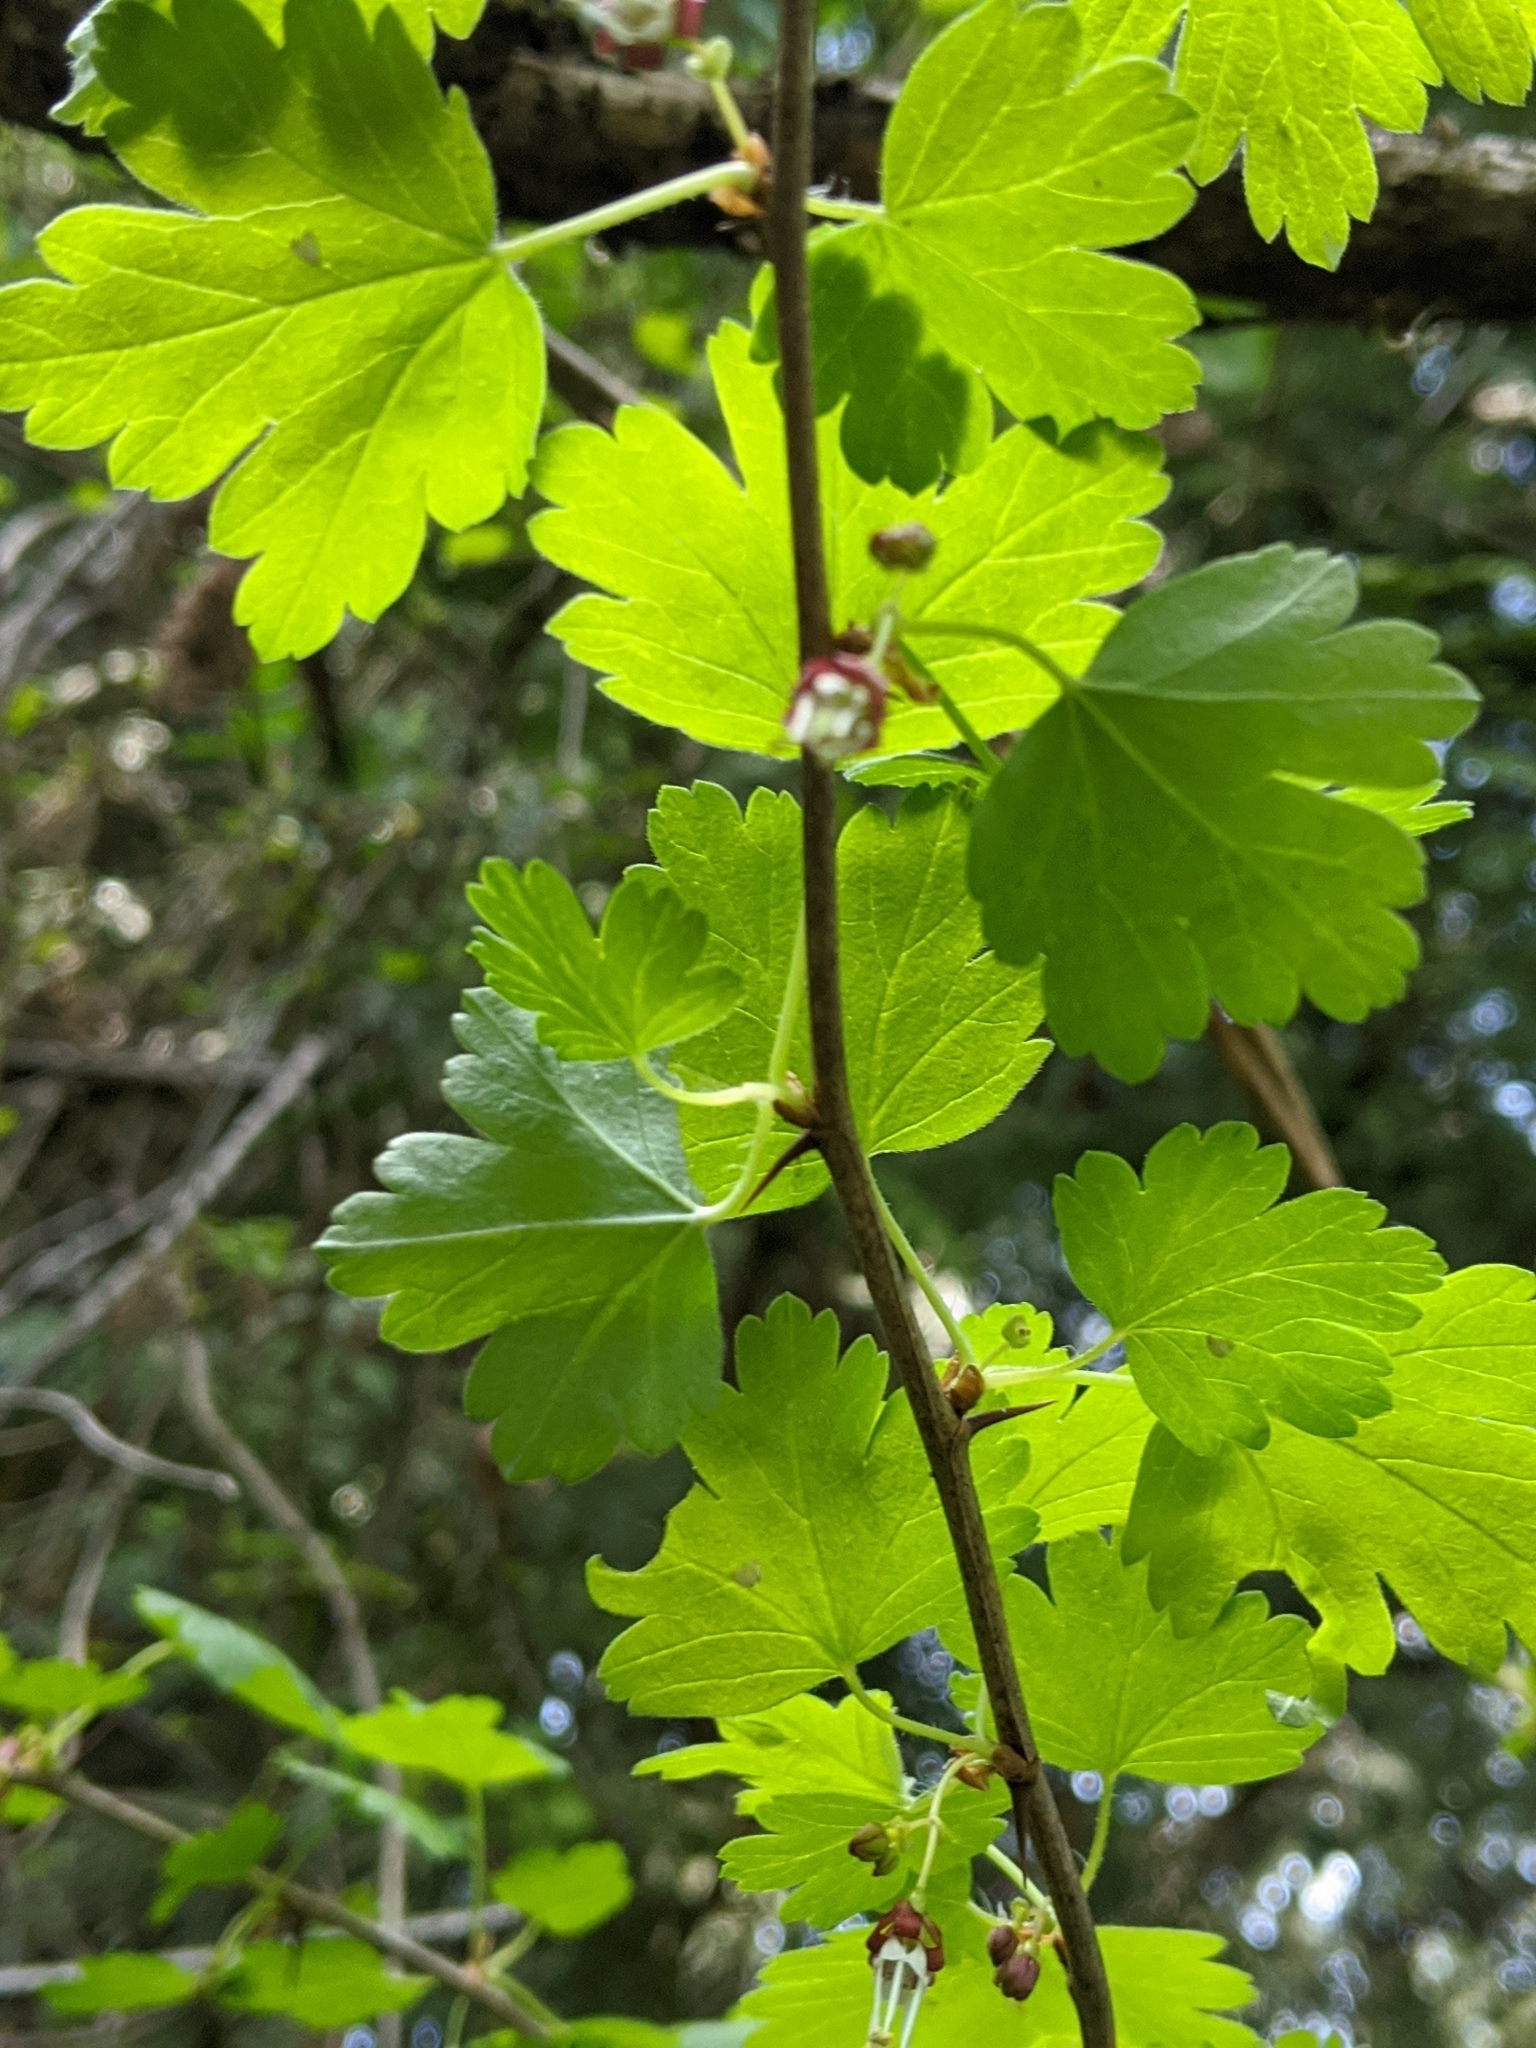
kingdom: Plantae
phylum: Tracheophyta
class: Magnoliopsida
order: Saxifragales
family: Grossulariaceae
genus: Ribes
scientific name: Ribes divaricatum
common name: Wild black gooseberry
